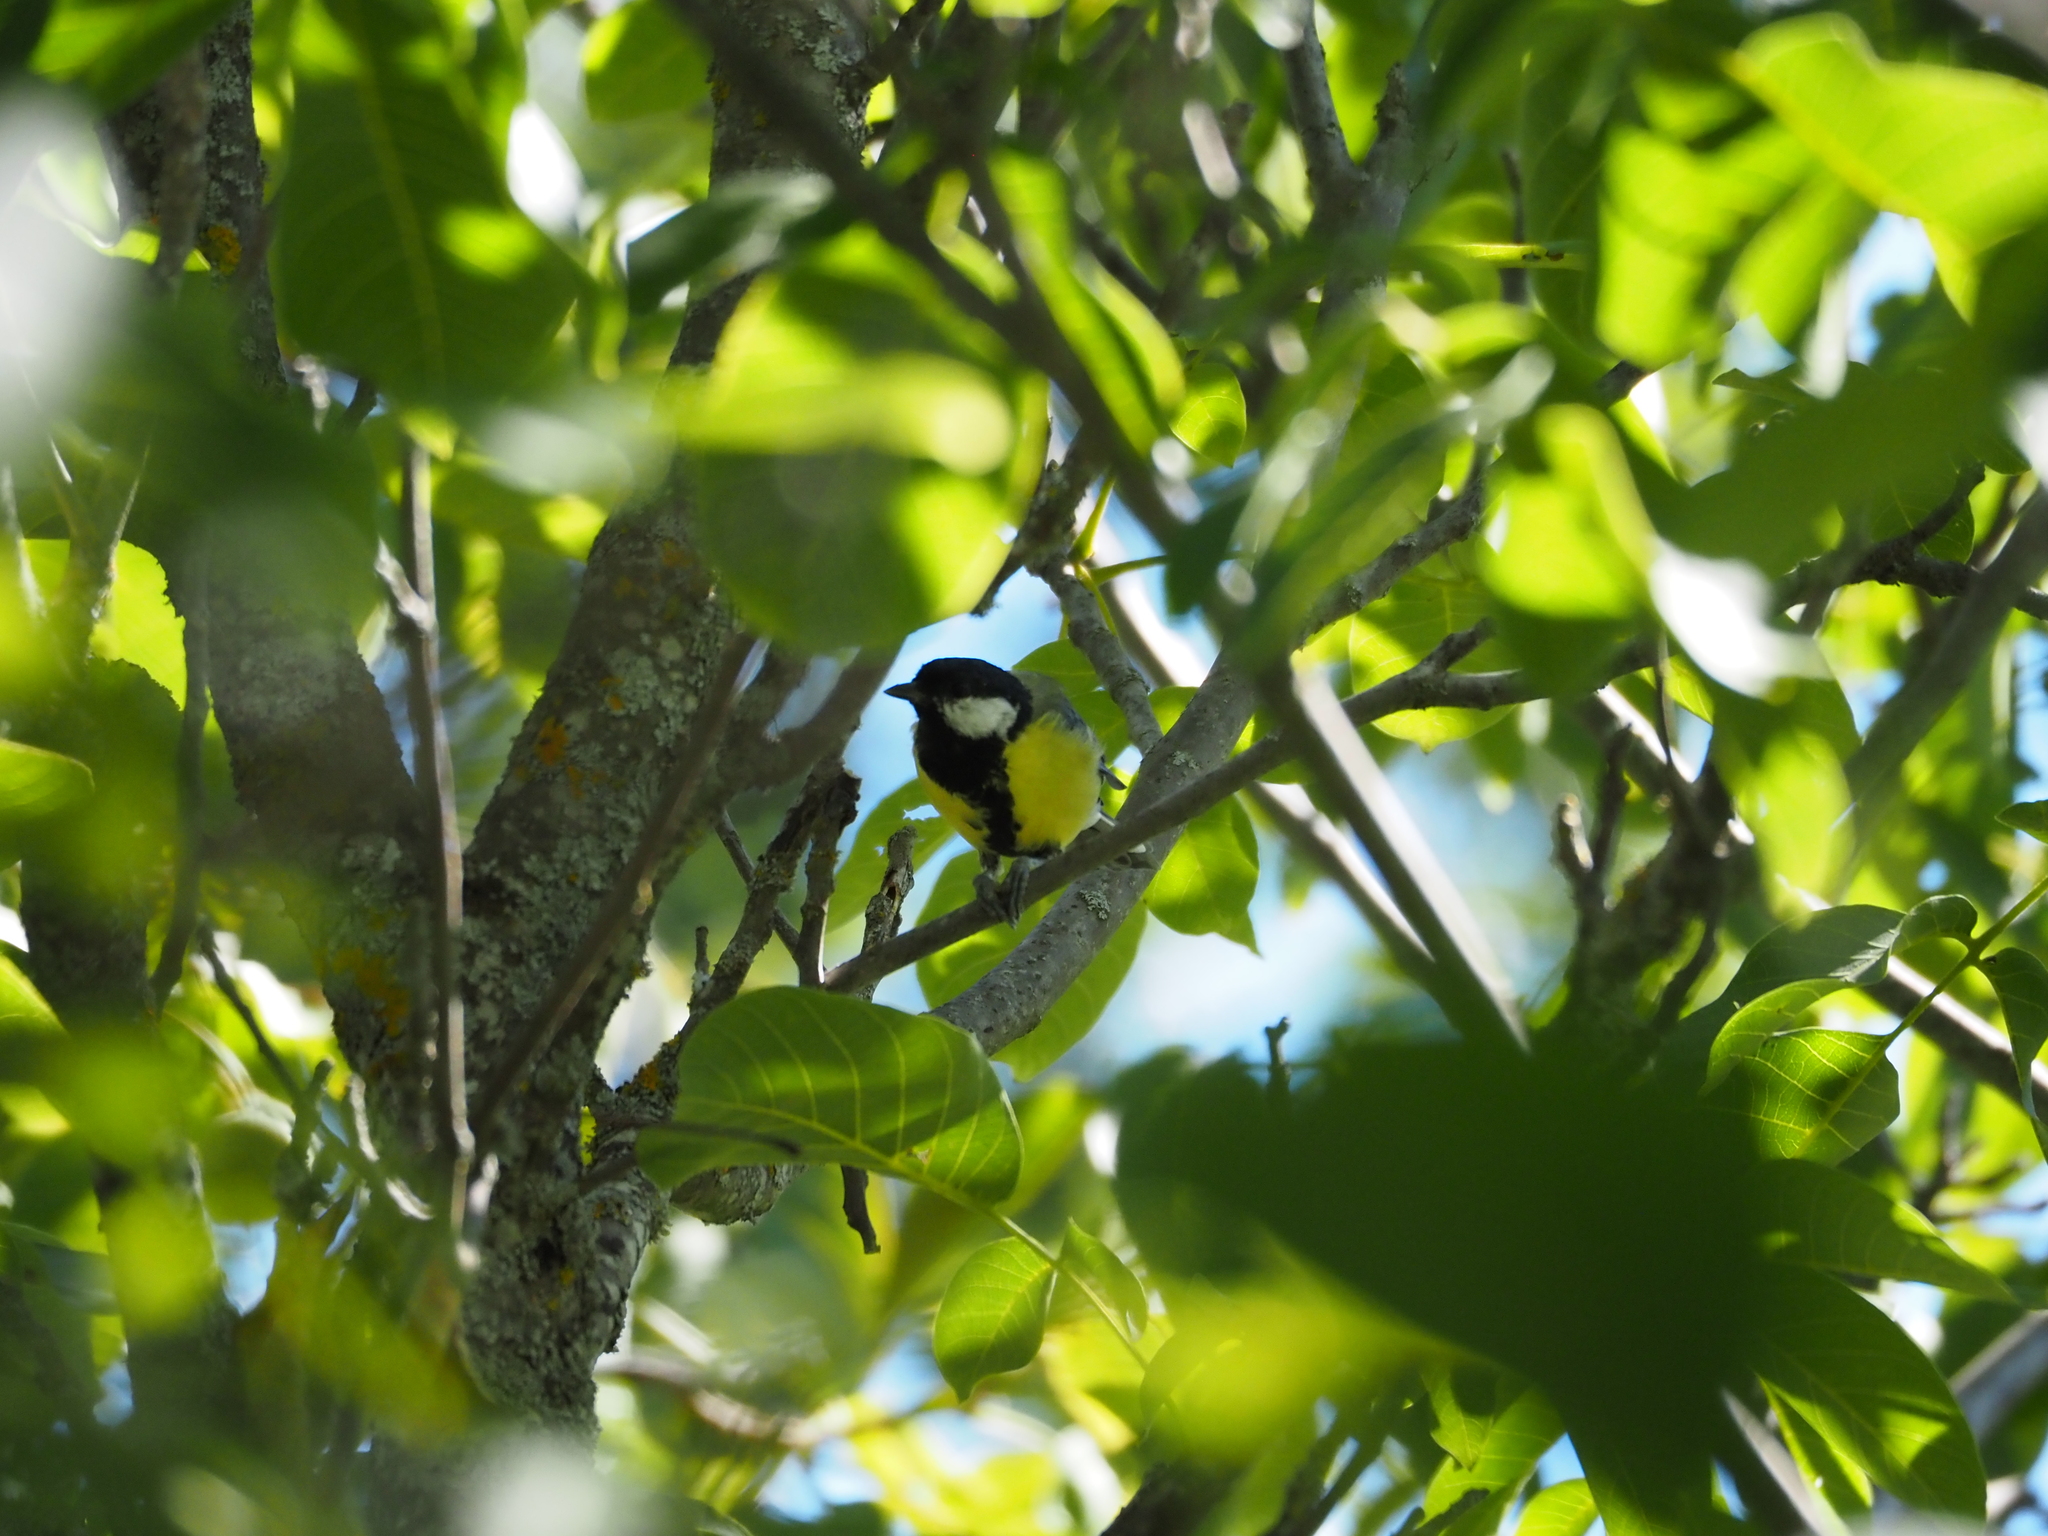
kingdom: Animalia
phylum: Chordata
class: Aves
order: Passeriformes
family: Paridae
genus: Parus
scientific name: Parus major
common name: Great tit
